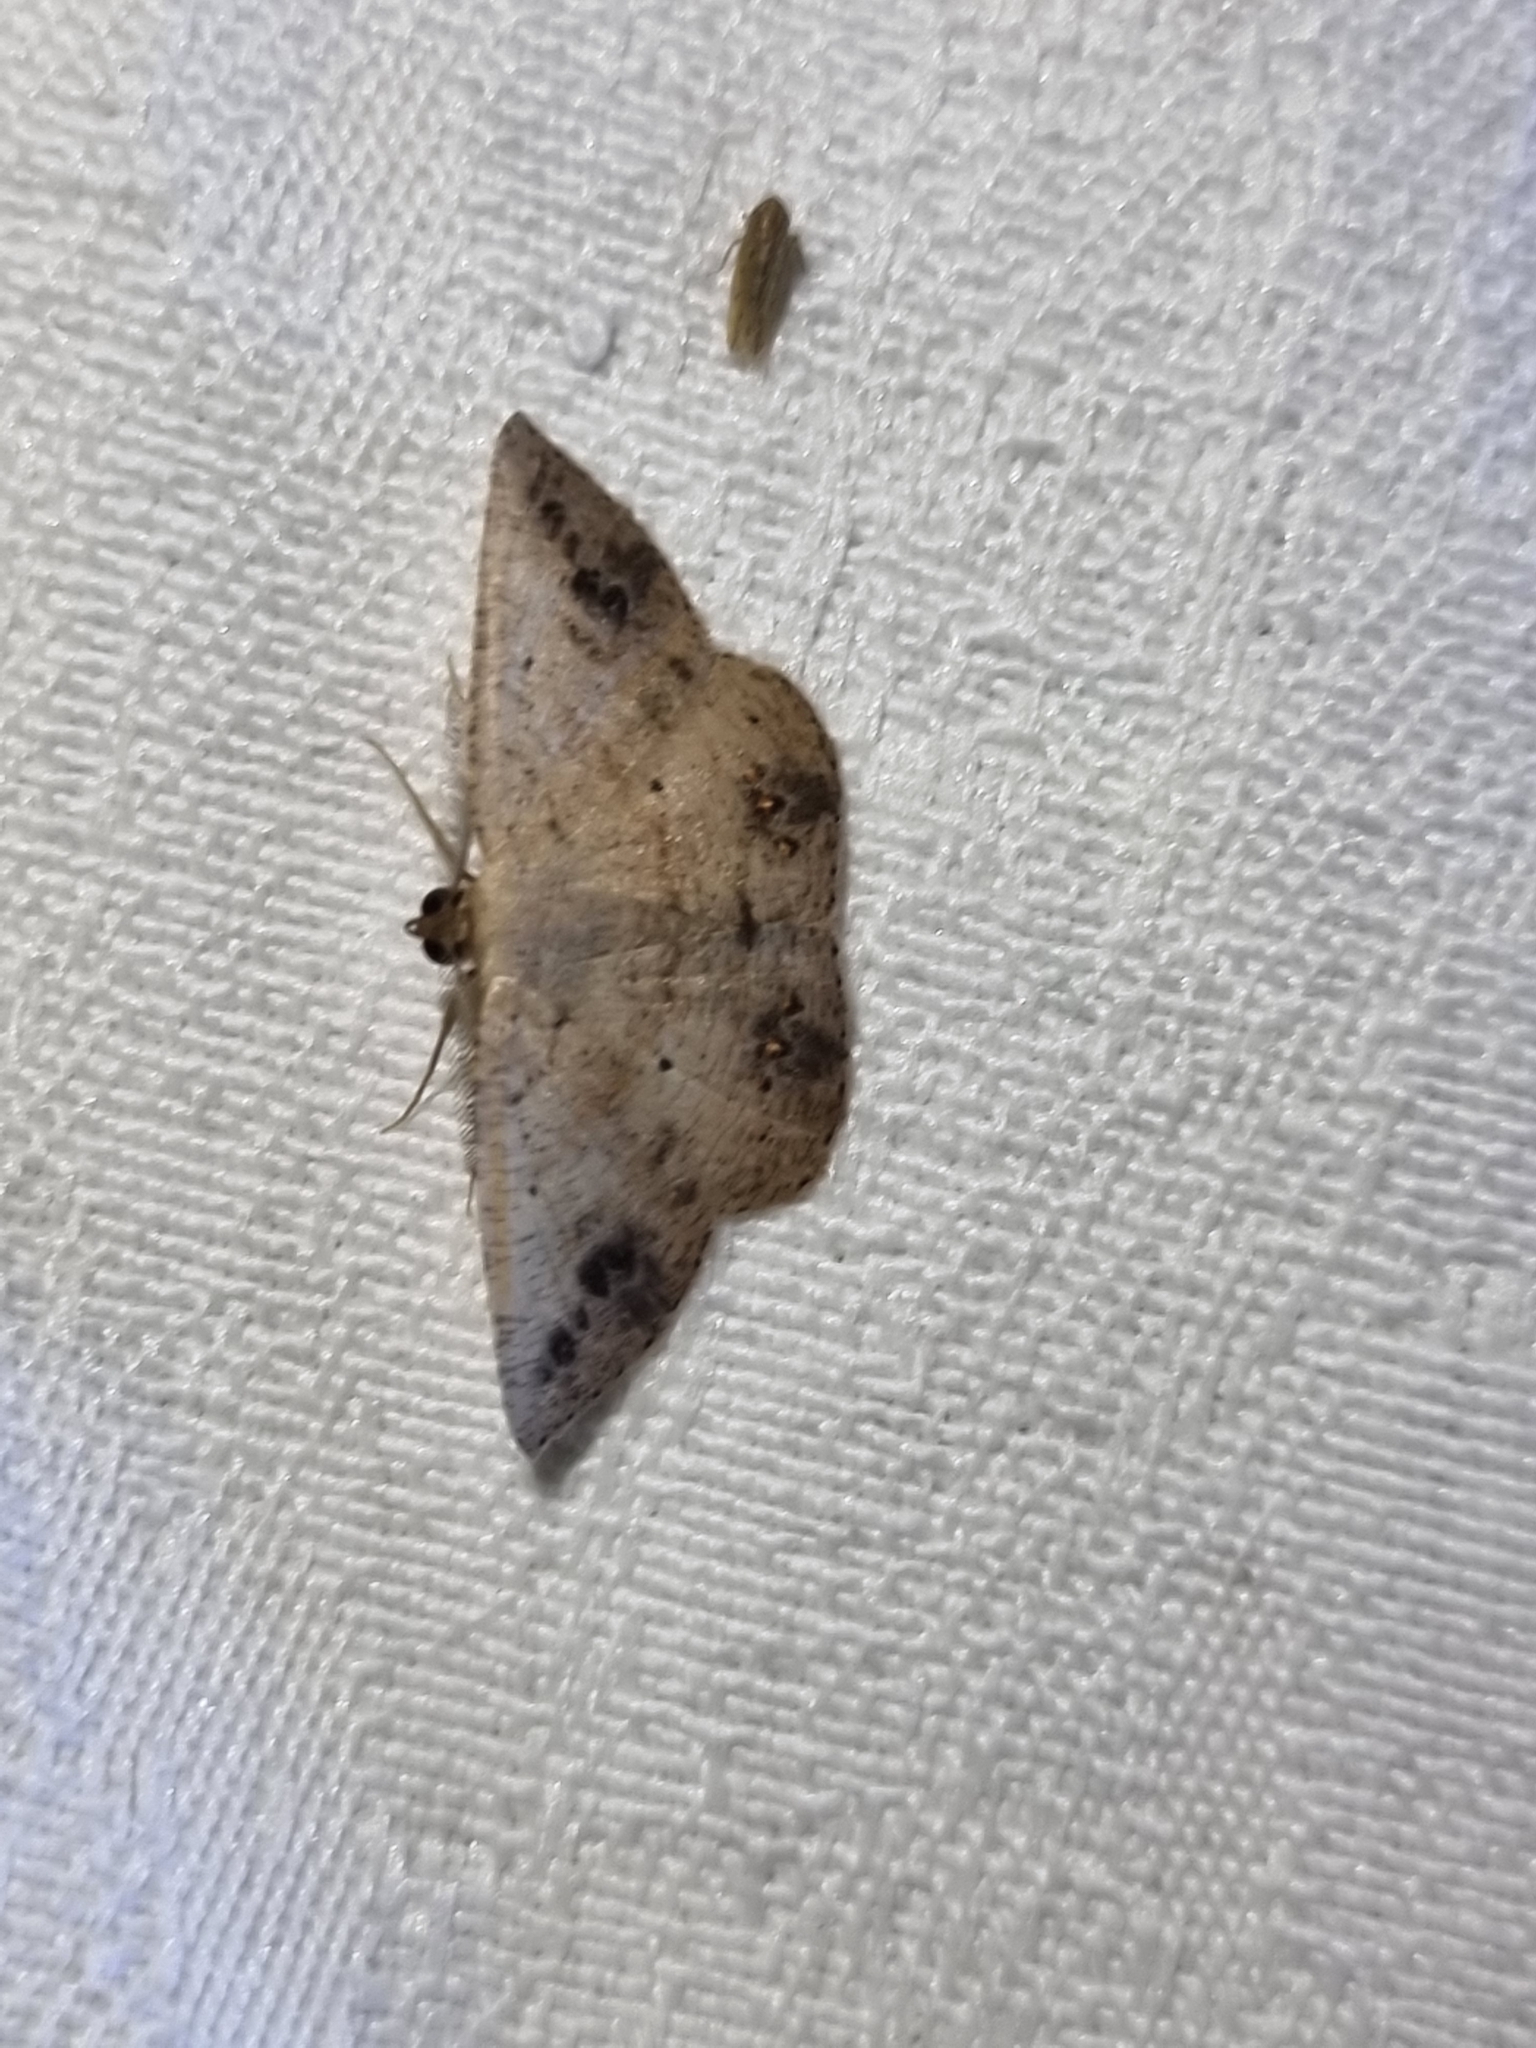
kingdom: Animalia
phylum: Arthropoda
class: Insecta
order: Lepidoptera
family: Geometridae
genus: Casbia
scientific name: Casbia rectaria
